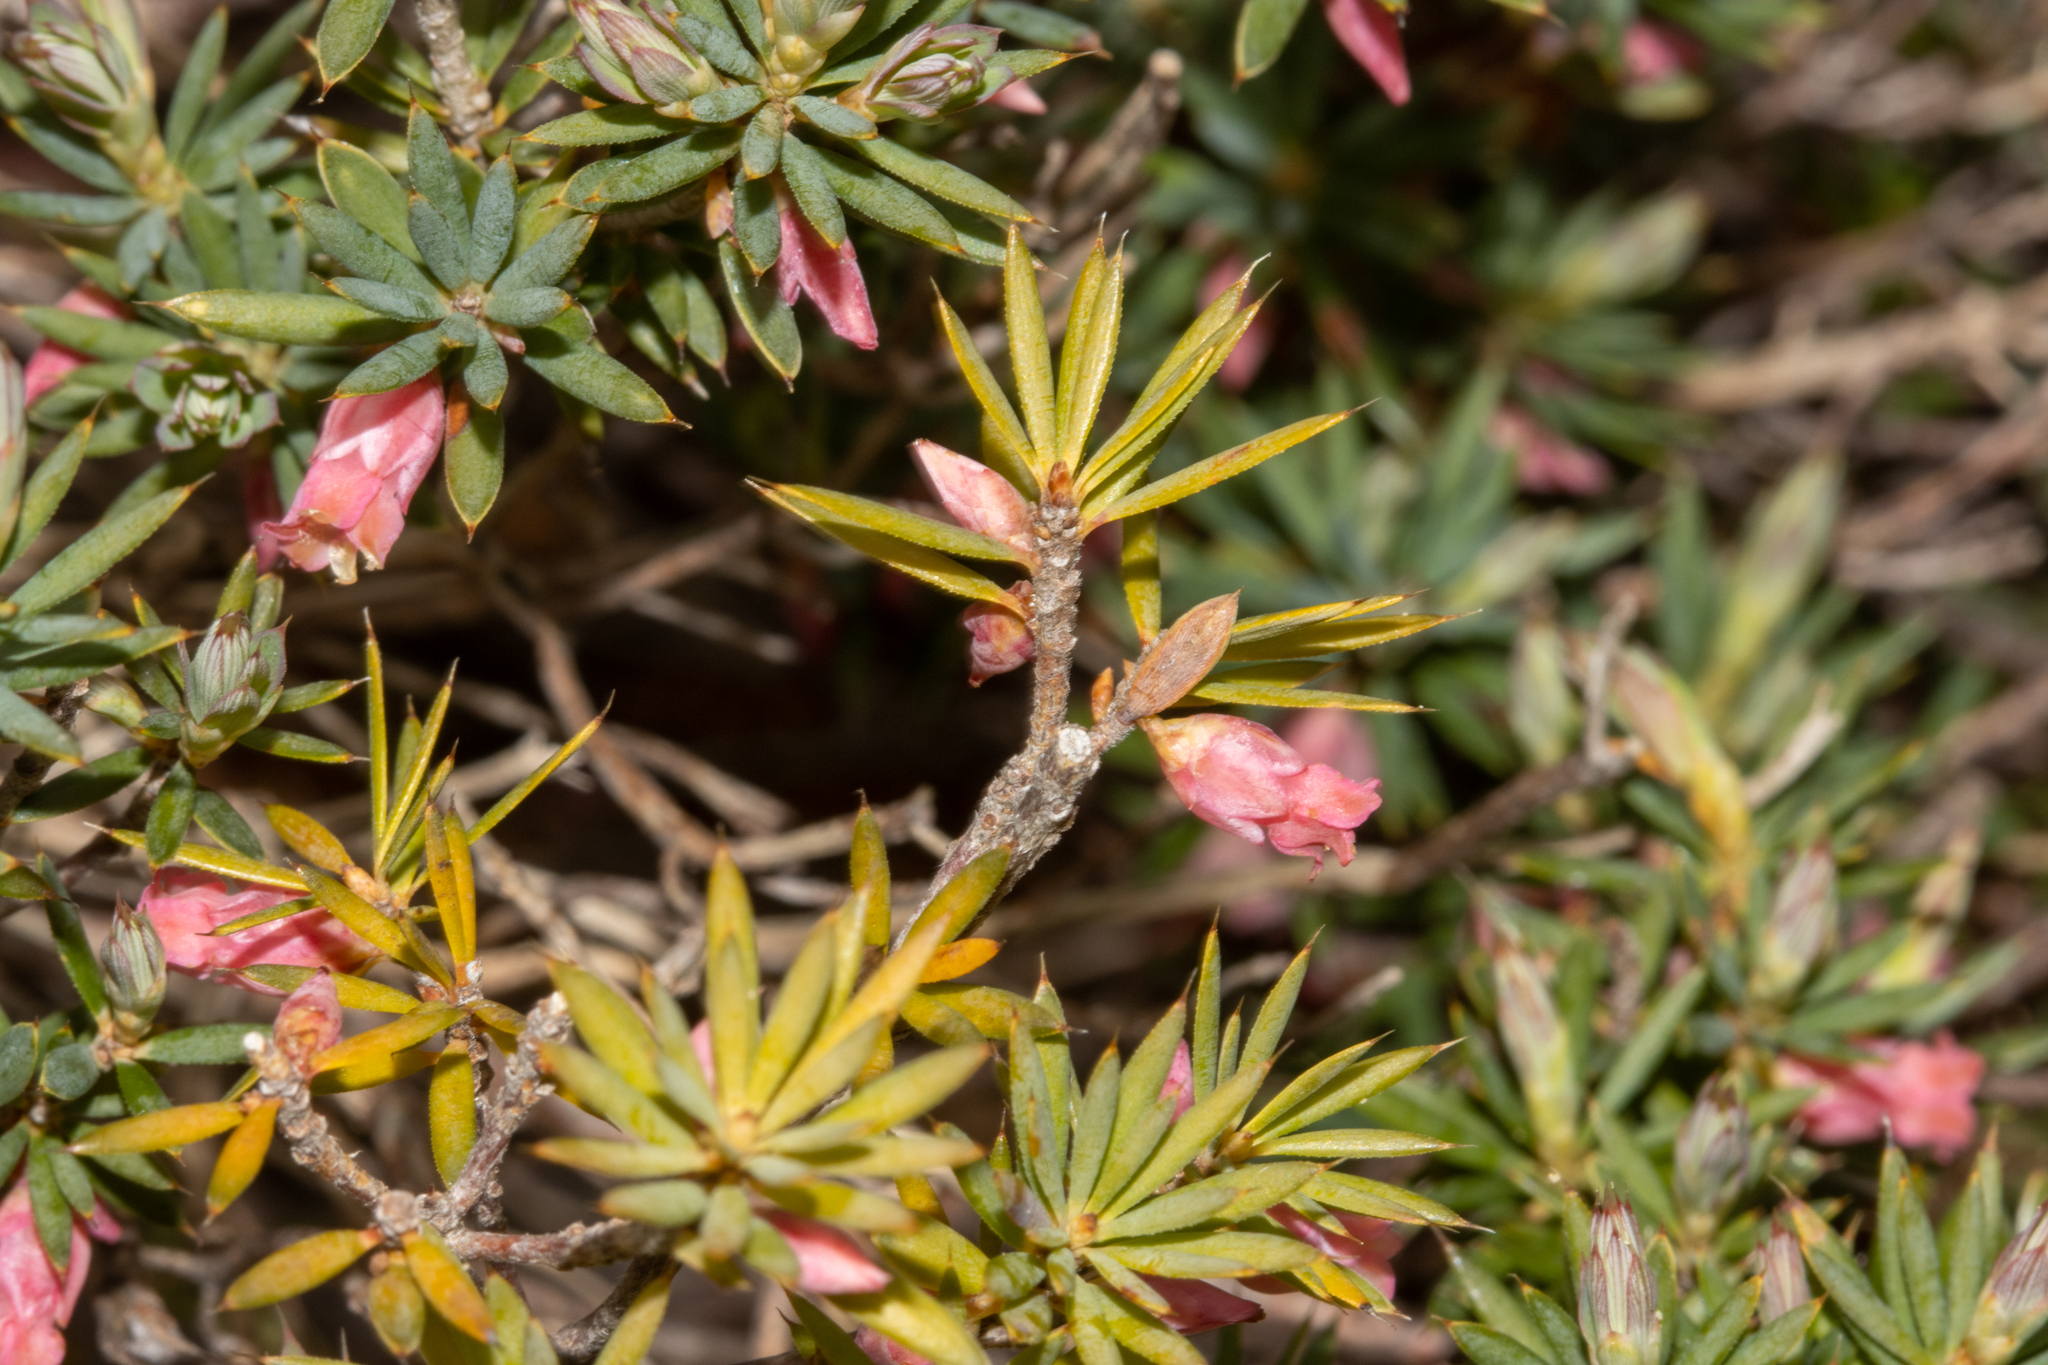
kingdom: Plantae
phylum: Tracheophyta
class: Magnoliopsida
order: Ericales
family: Ericaceae
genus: Brachyloma
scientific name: Brachyloma ericoides
